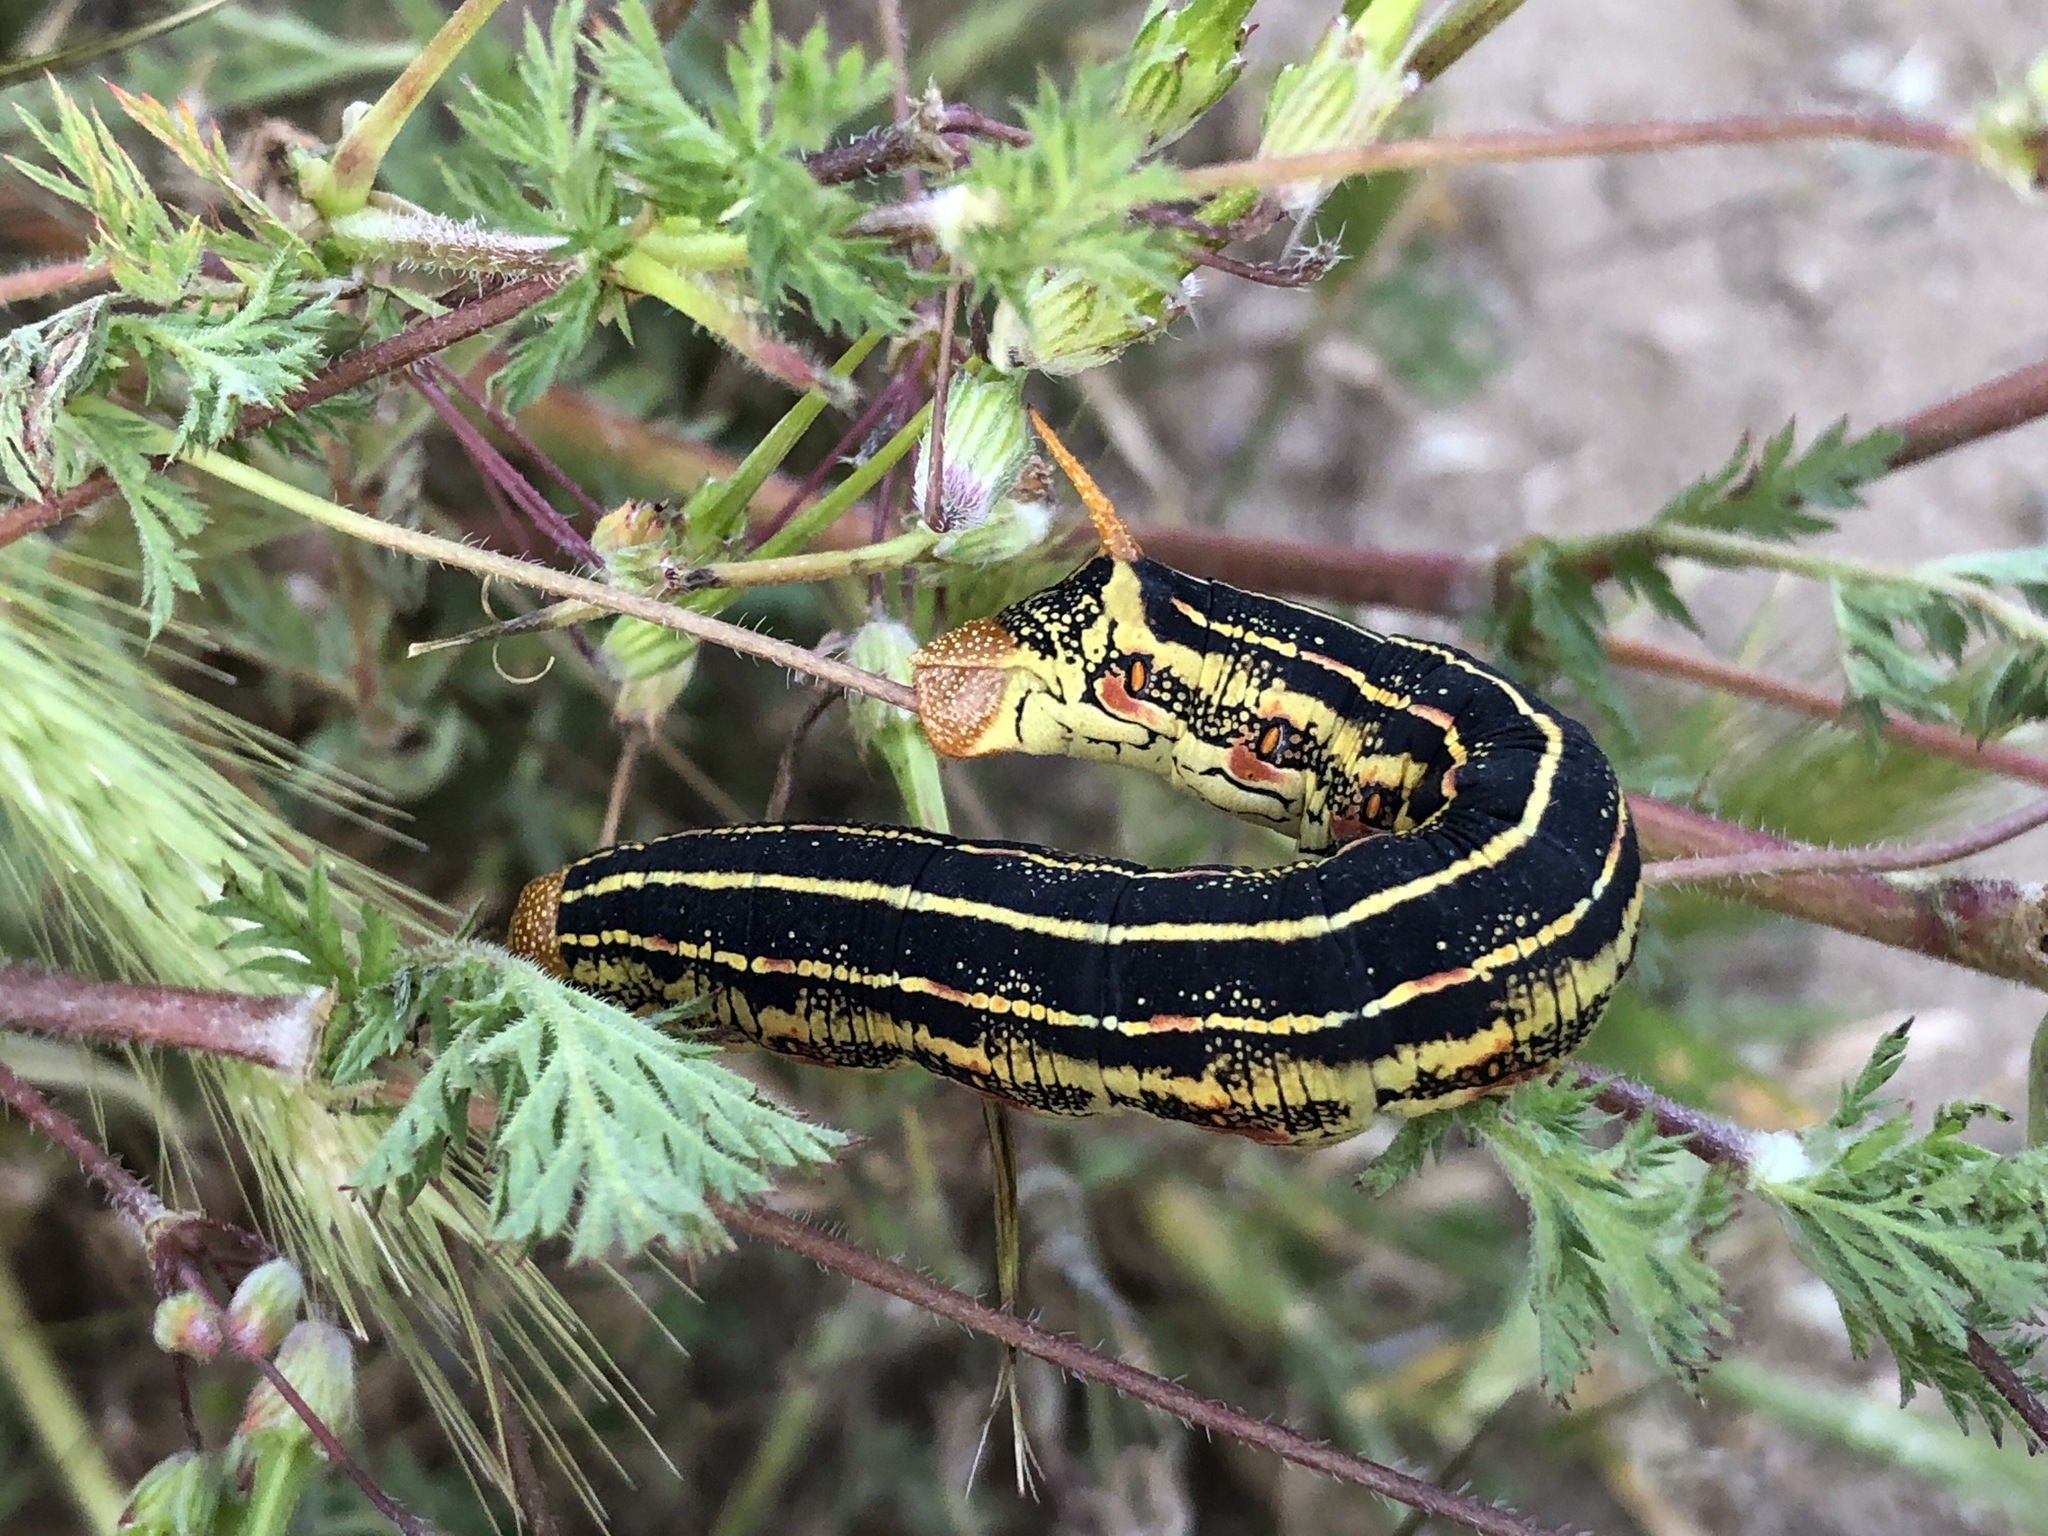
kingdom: Animalia
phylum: Arthropoda
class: Insecta
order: Lepidoptera
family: Sphingidae
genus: Hyles
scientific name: Hyles lineata
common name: White-lined sphinx
